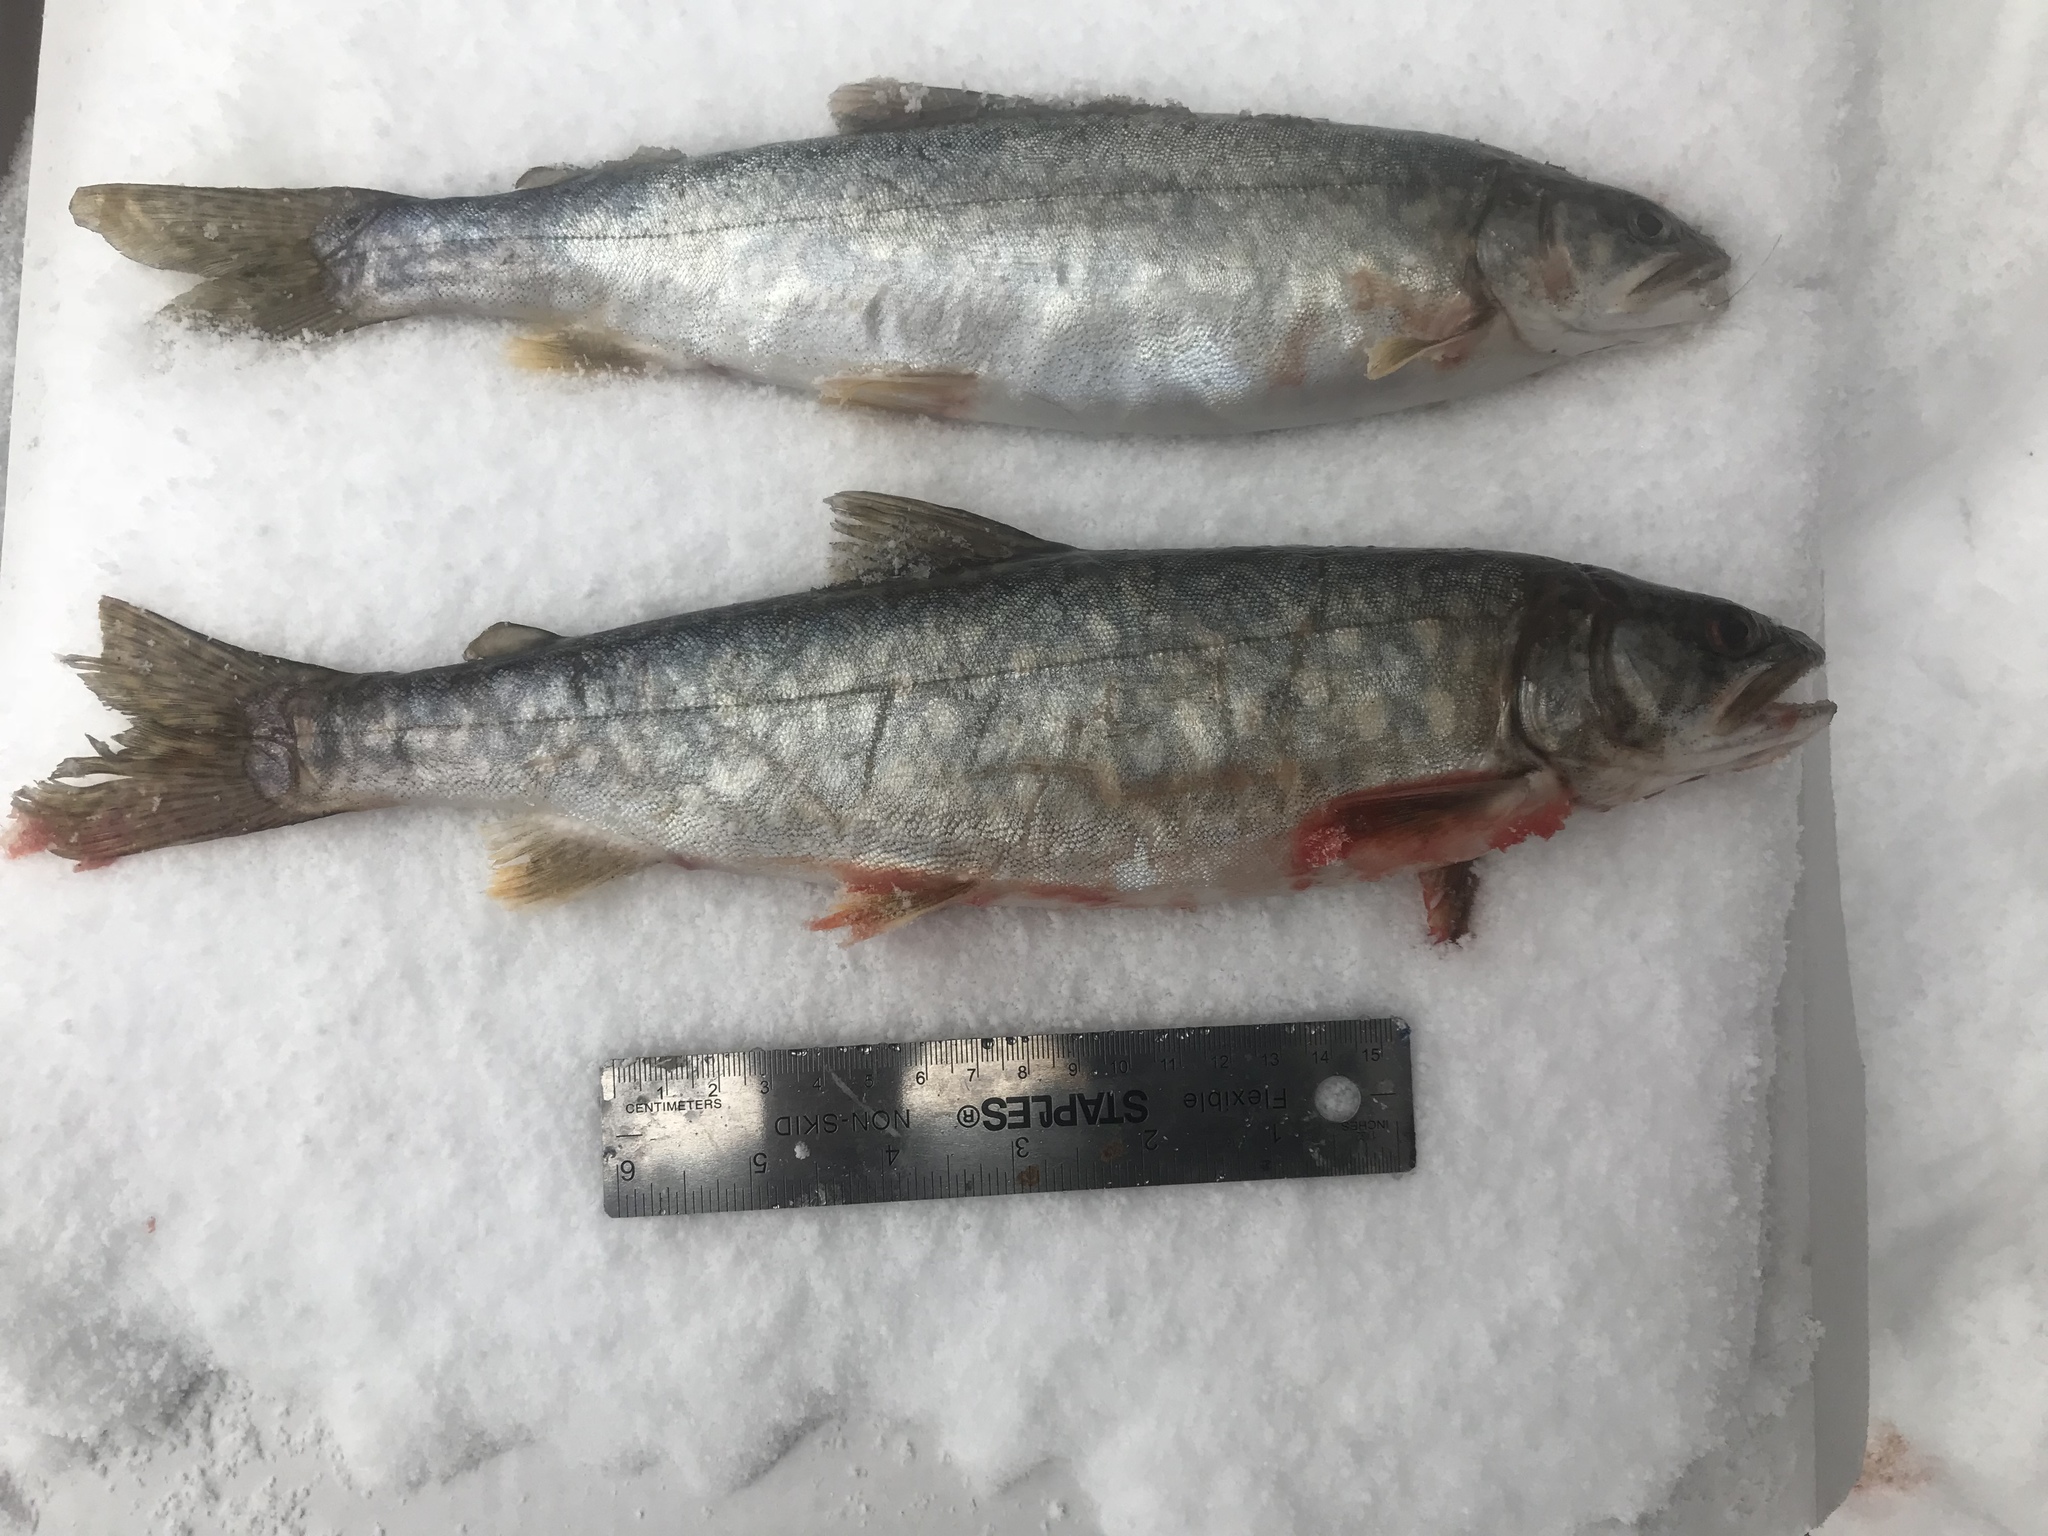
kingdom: Animalia
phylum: Chordata
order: Salmoniformes
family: Salmonidae
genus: Salvelinus
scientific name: Salvelinus namaycush
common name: American lake charr
